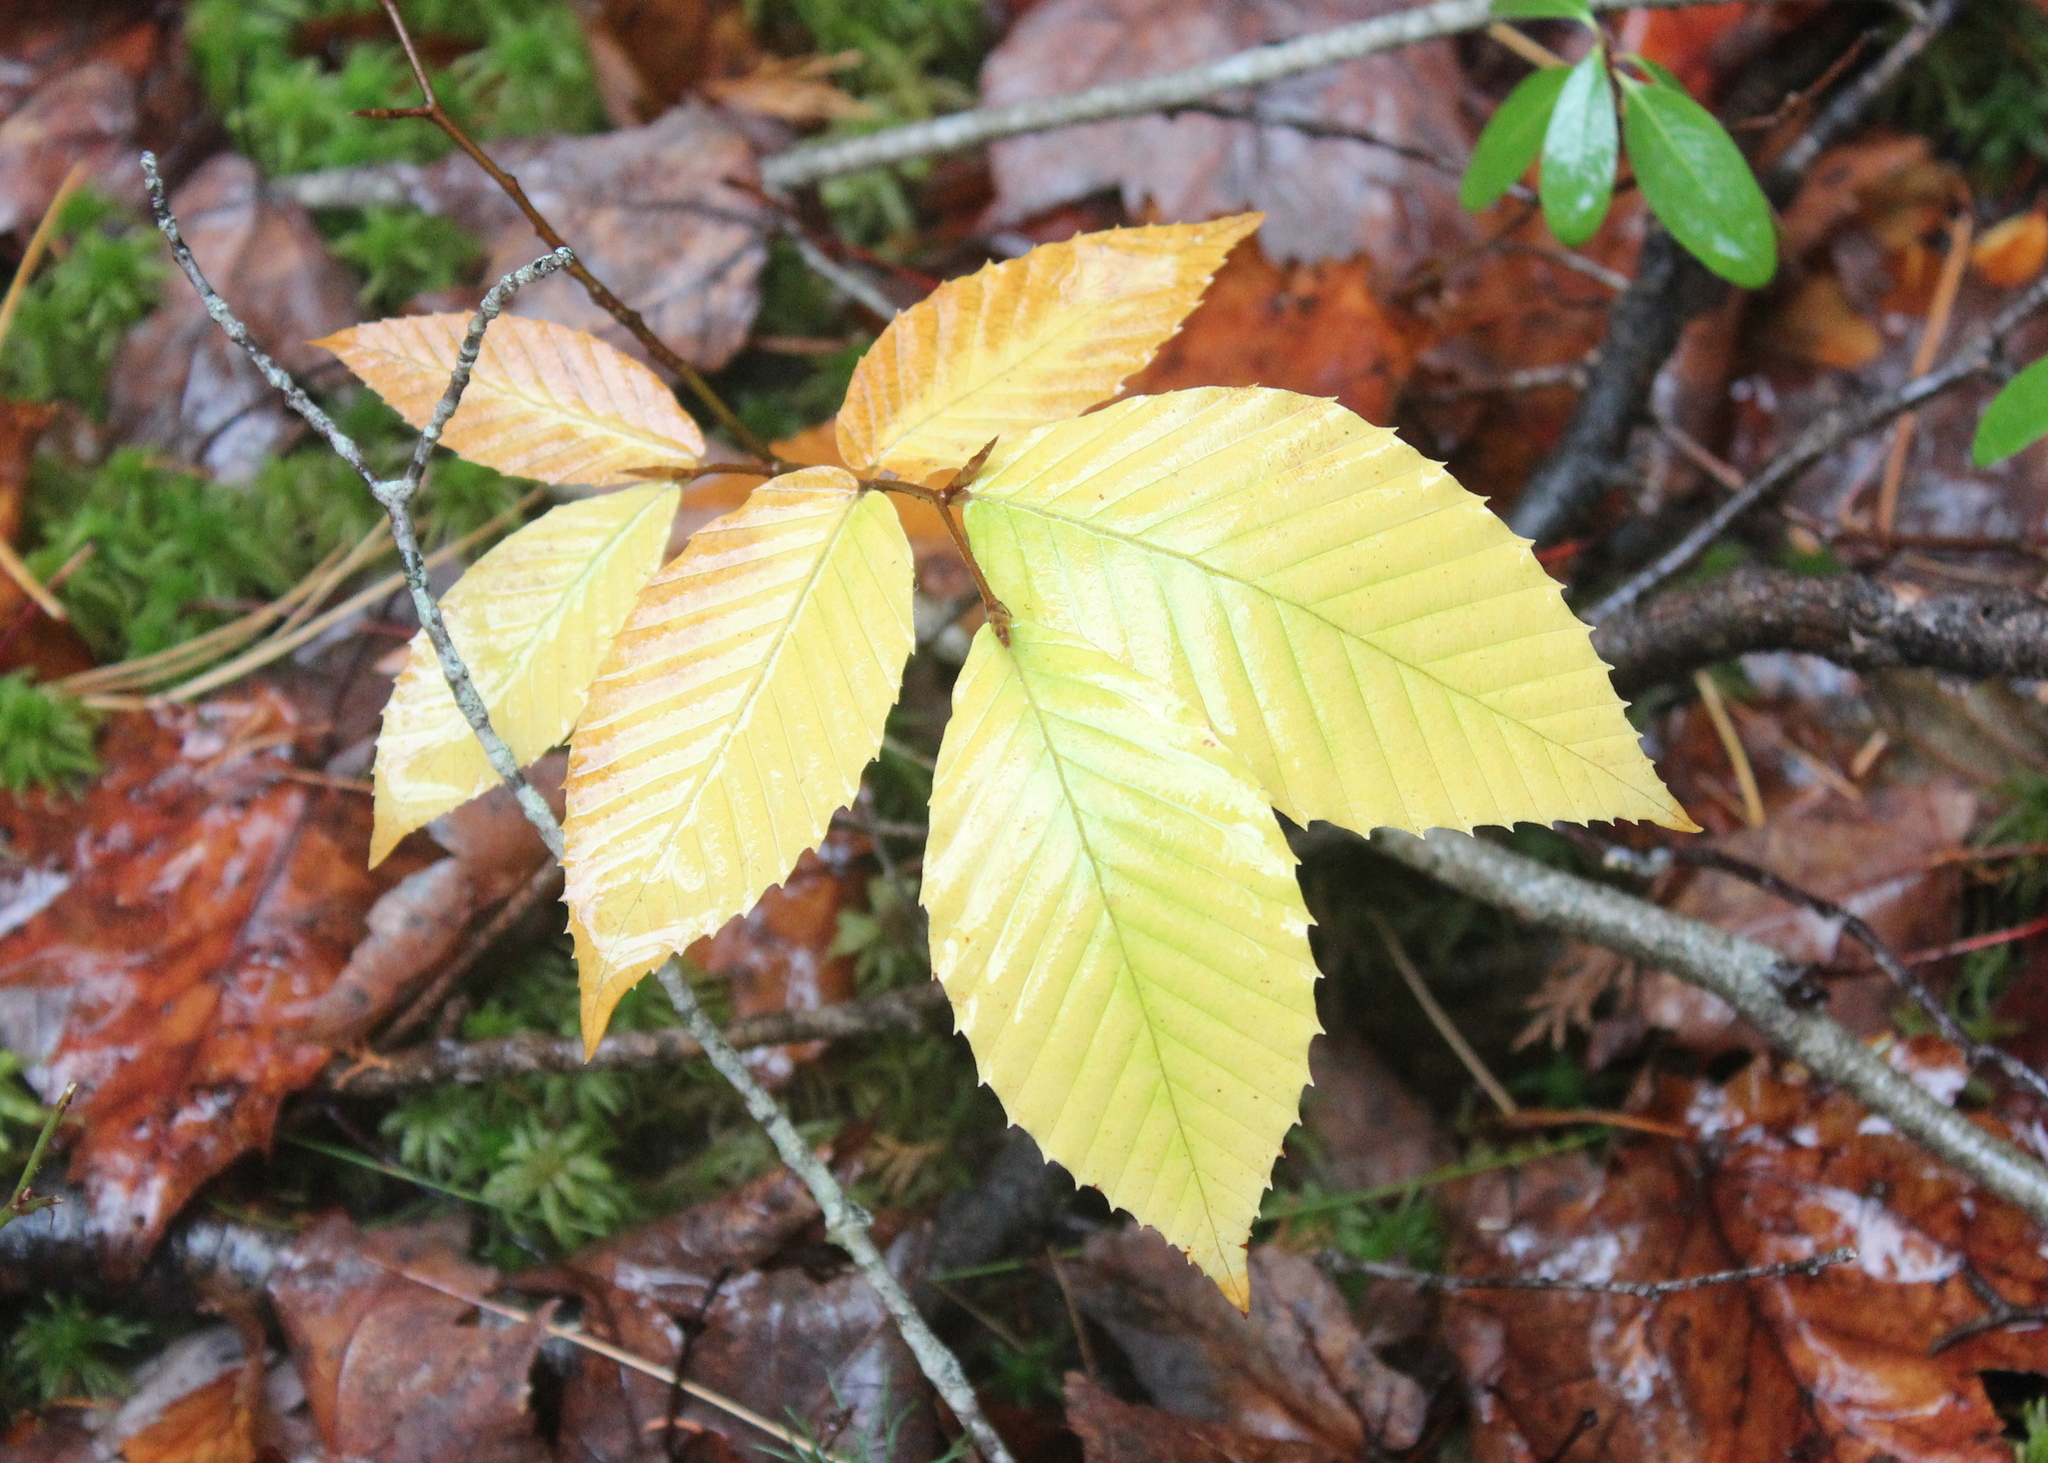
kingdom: Plantae
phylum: Tracheophyta
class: Magnoliopsida
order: Fagales
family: Fagaceae
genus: Fagus
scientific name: Fagus grandifolia
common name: American beech
